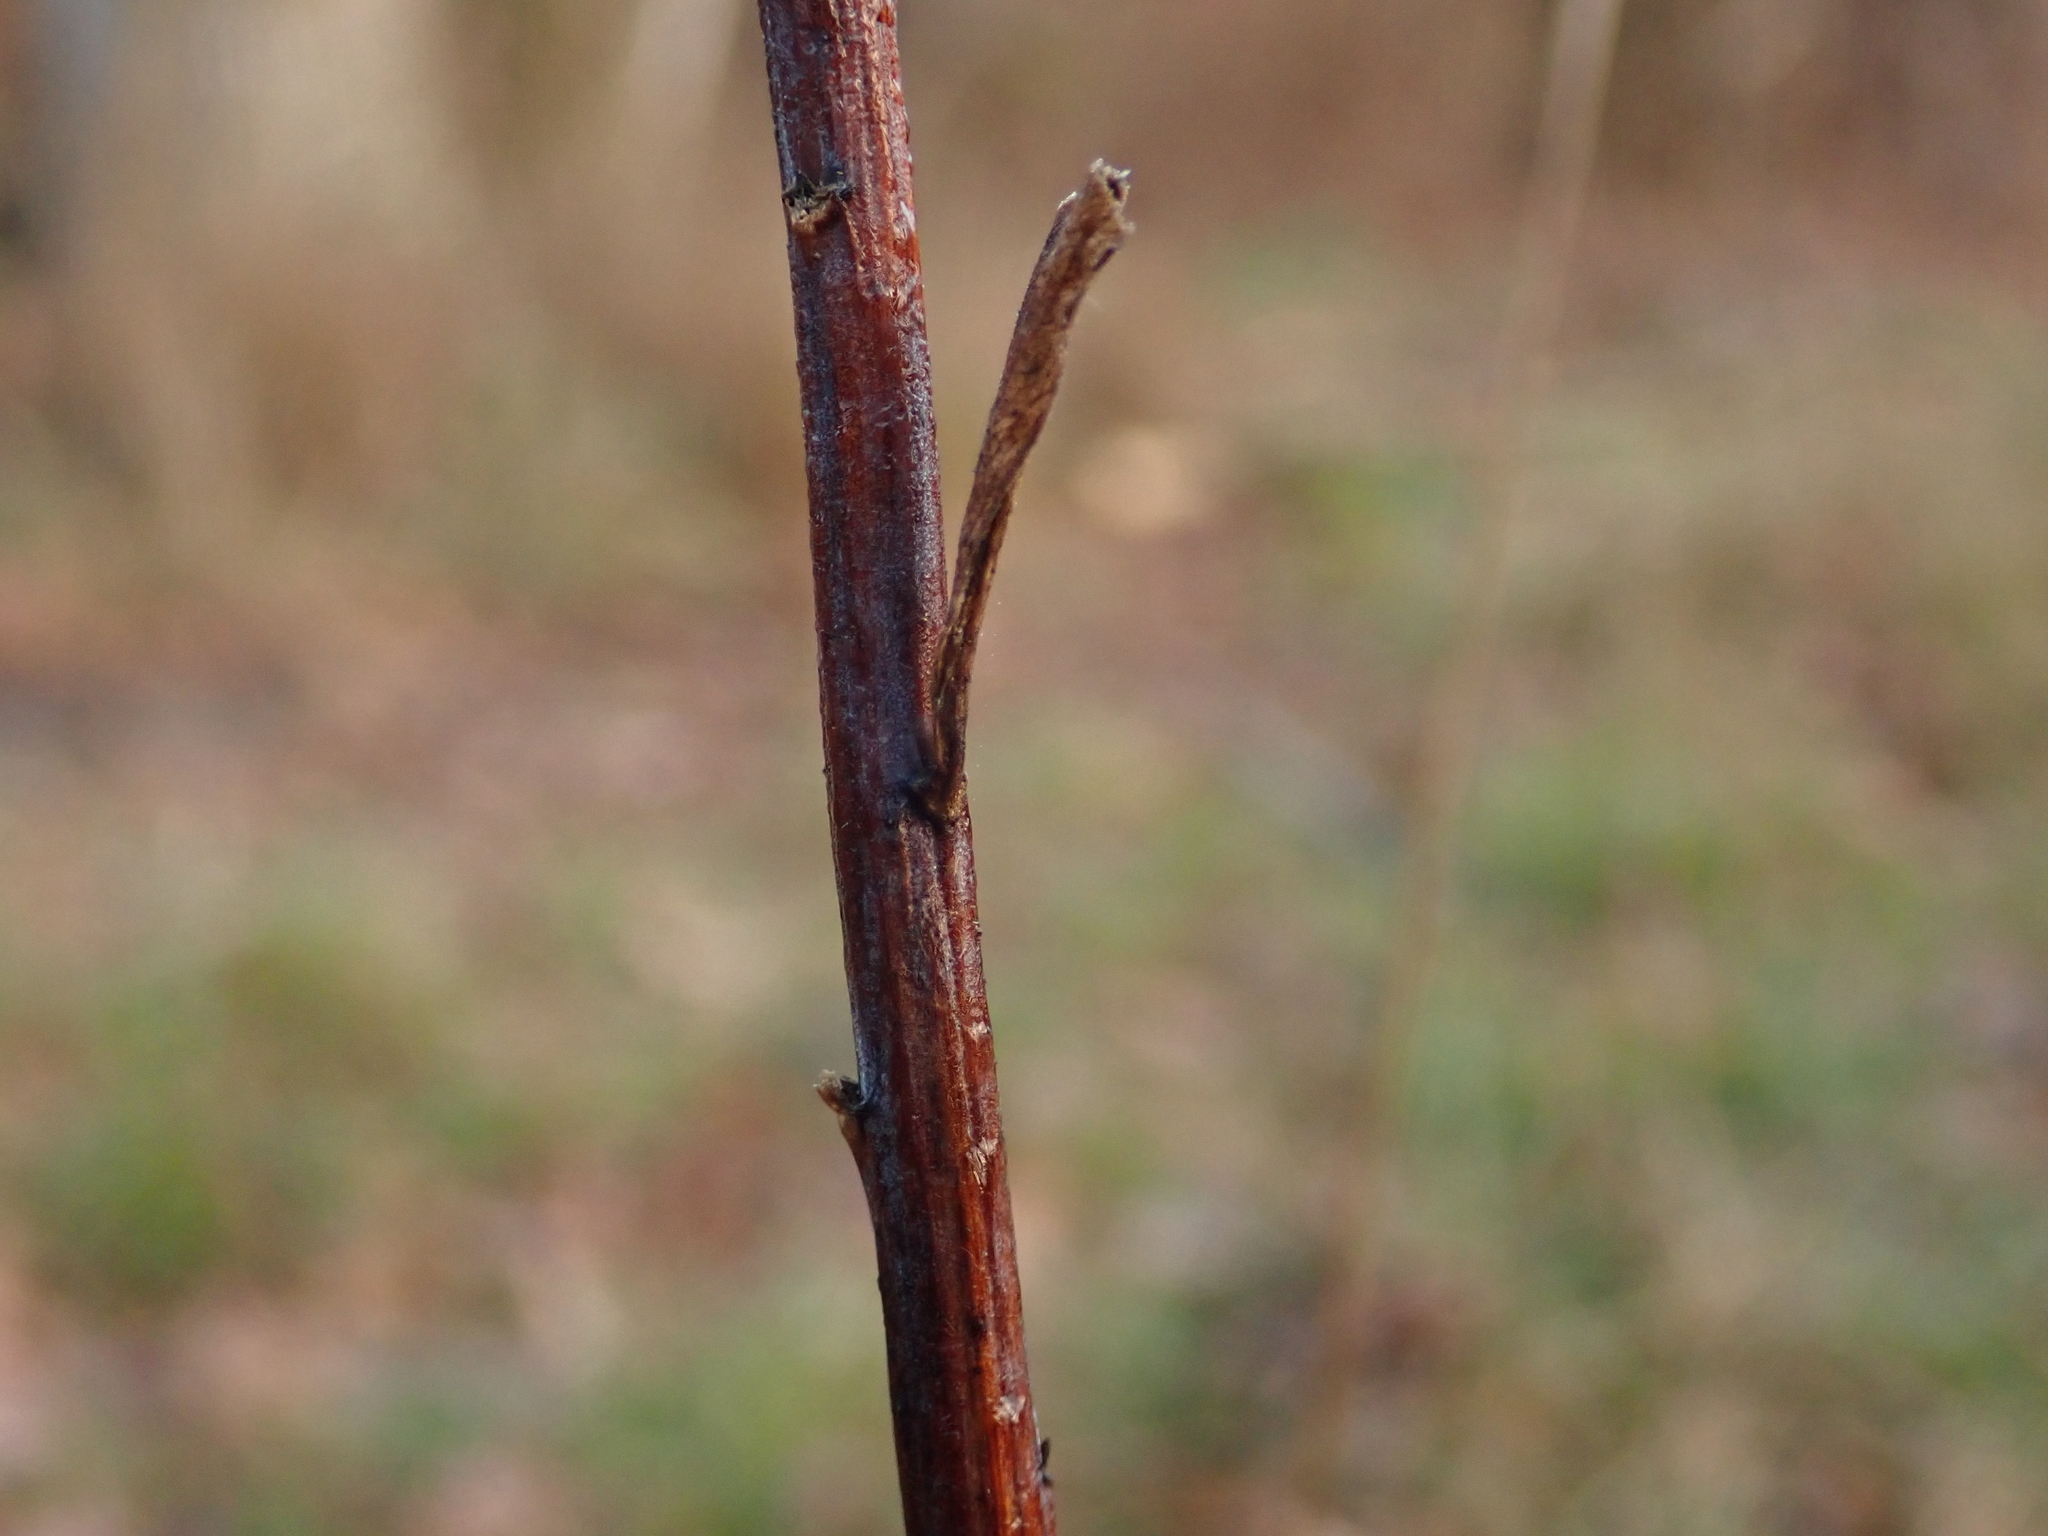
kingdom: Plantae
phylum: Tracheophyta
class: Magnoliopsida
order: Asterales
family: Asteraceae
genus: Solidago
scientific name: Solidago gigantea
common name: Giant goldenrod
